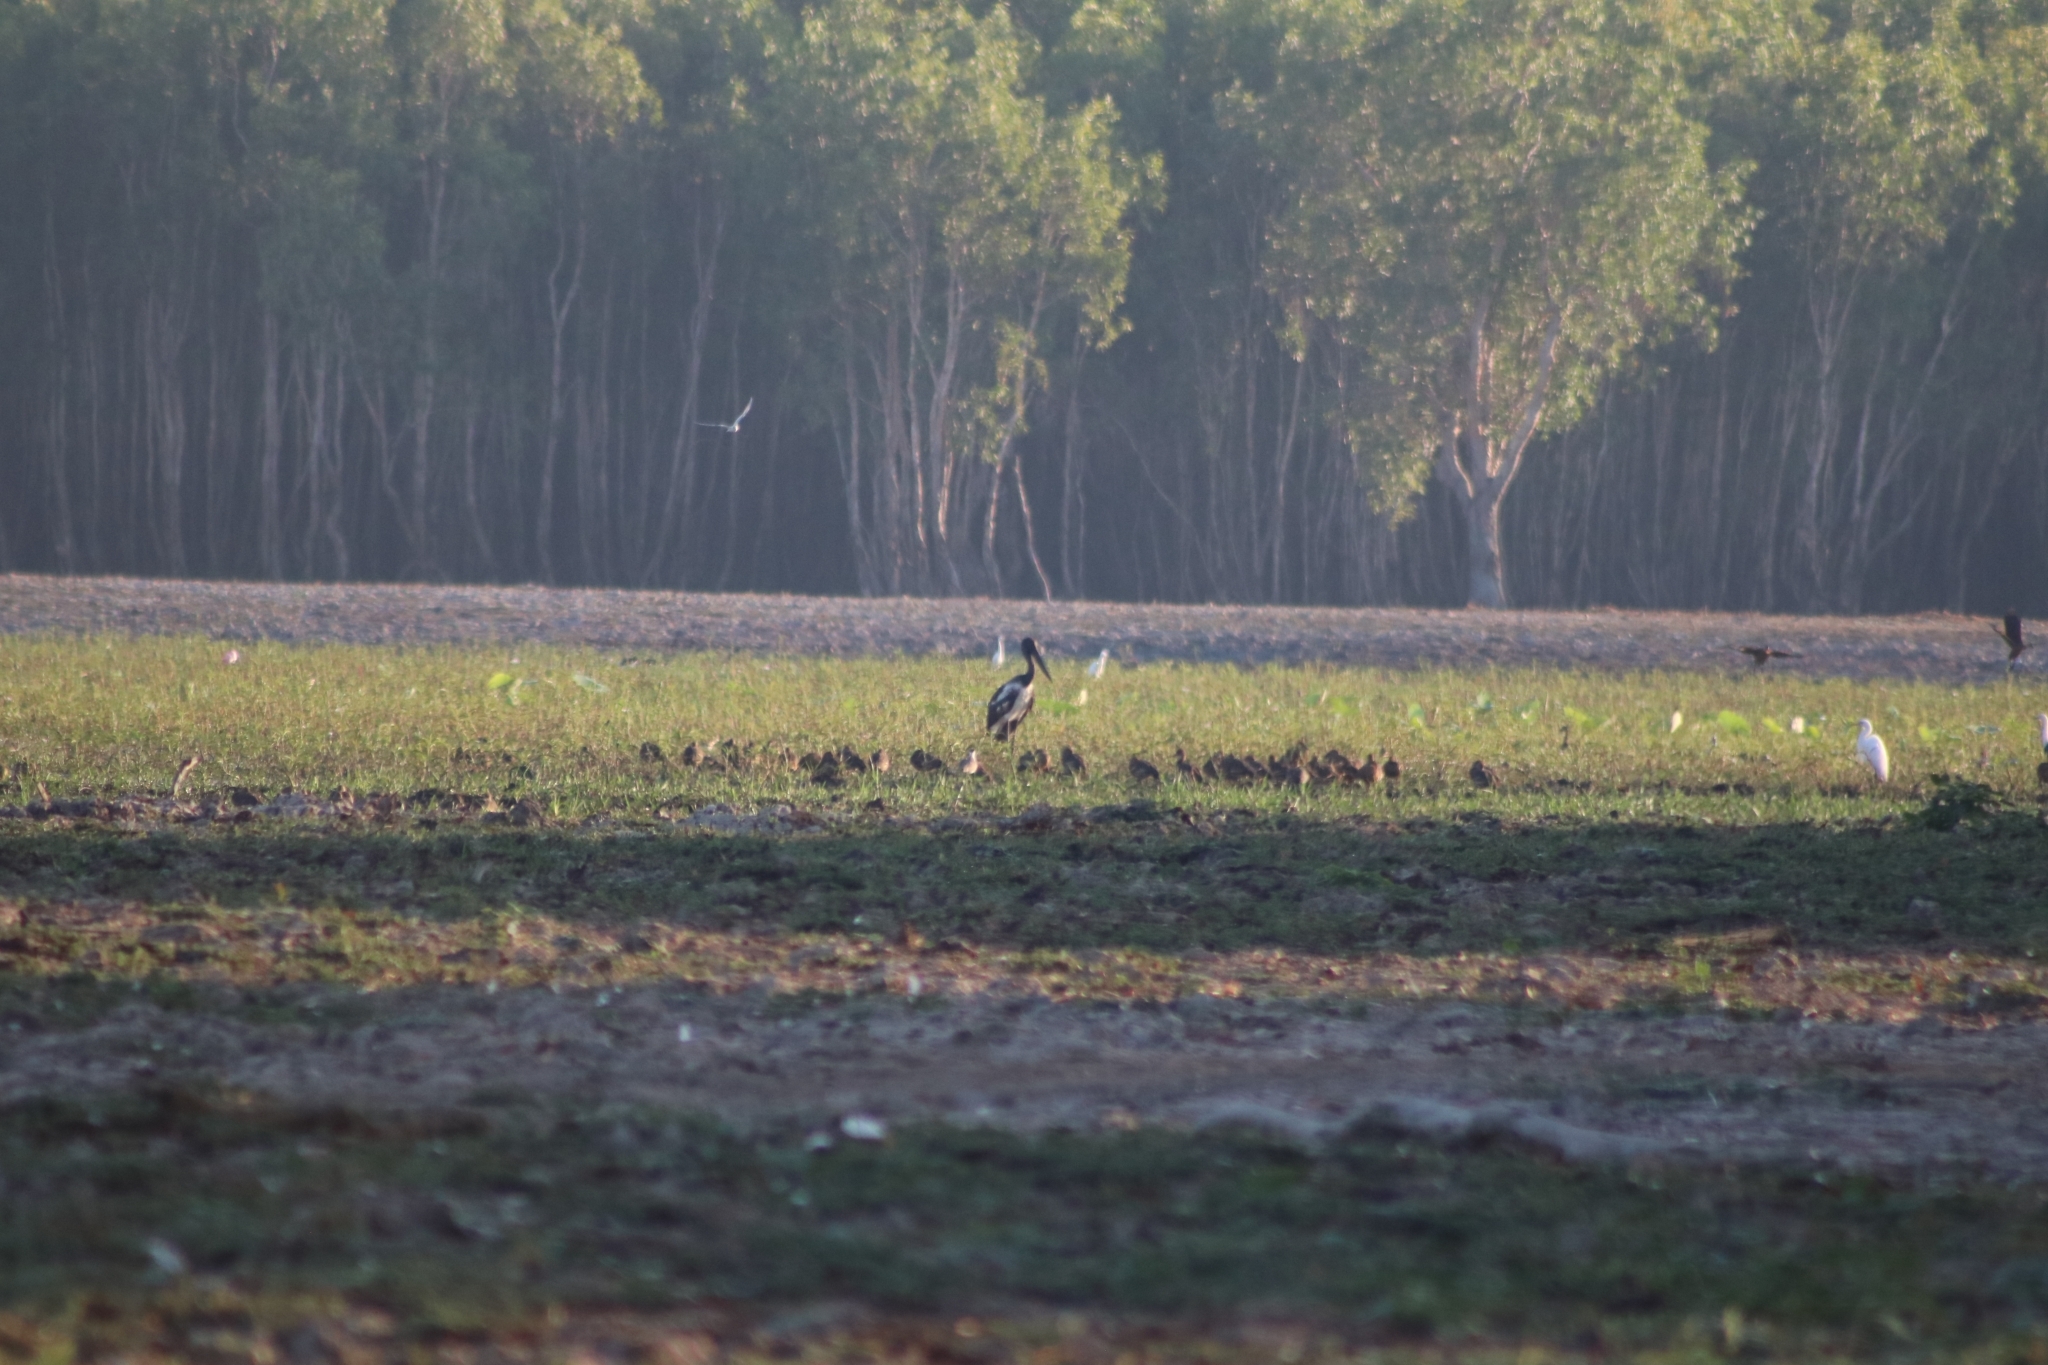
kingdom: Animalia
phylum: Chordata
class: Aves
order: Ciconiiformes
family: Ciconiidae
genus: Ephippiorhynchus
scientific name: Ephippiorhynchus asiaticus
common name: Black-necked stork
